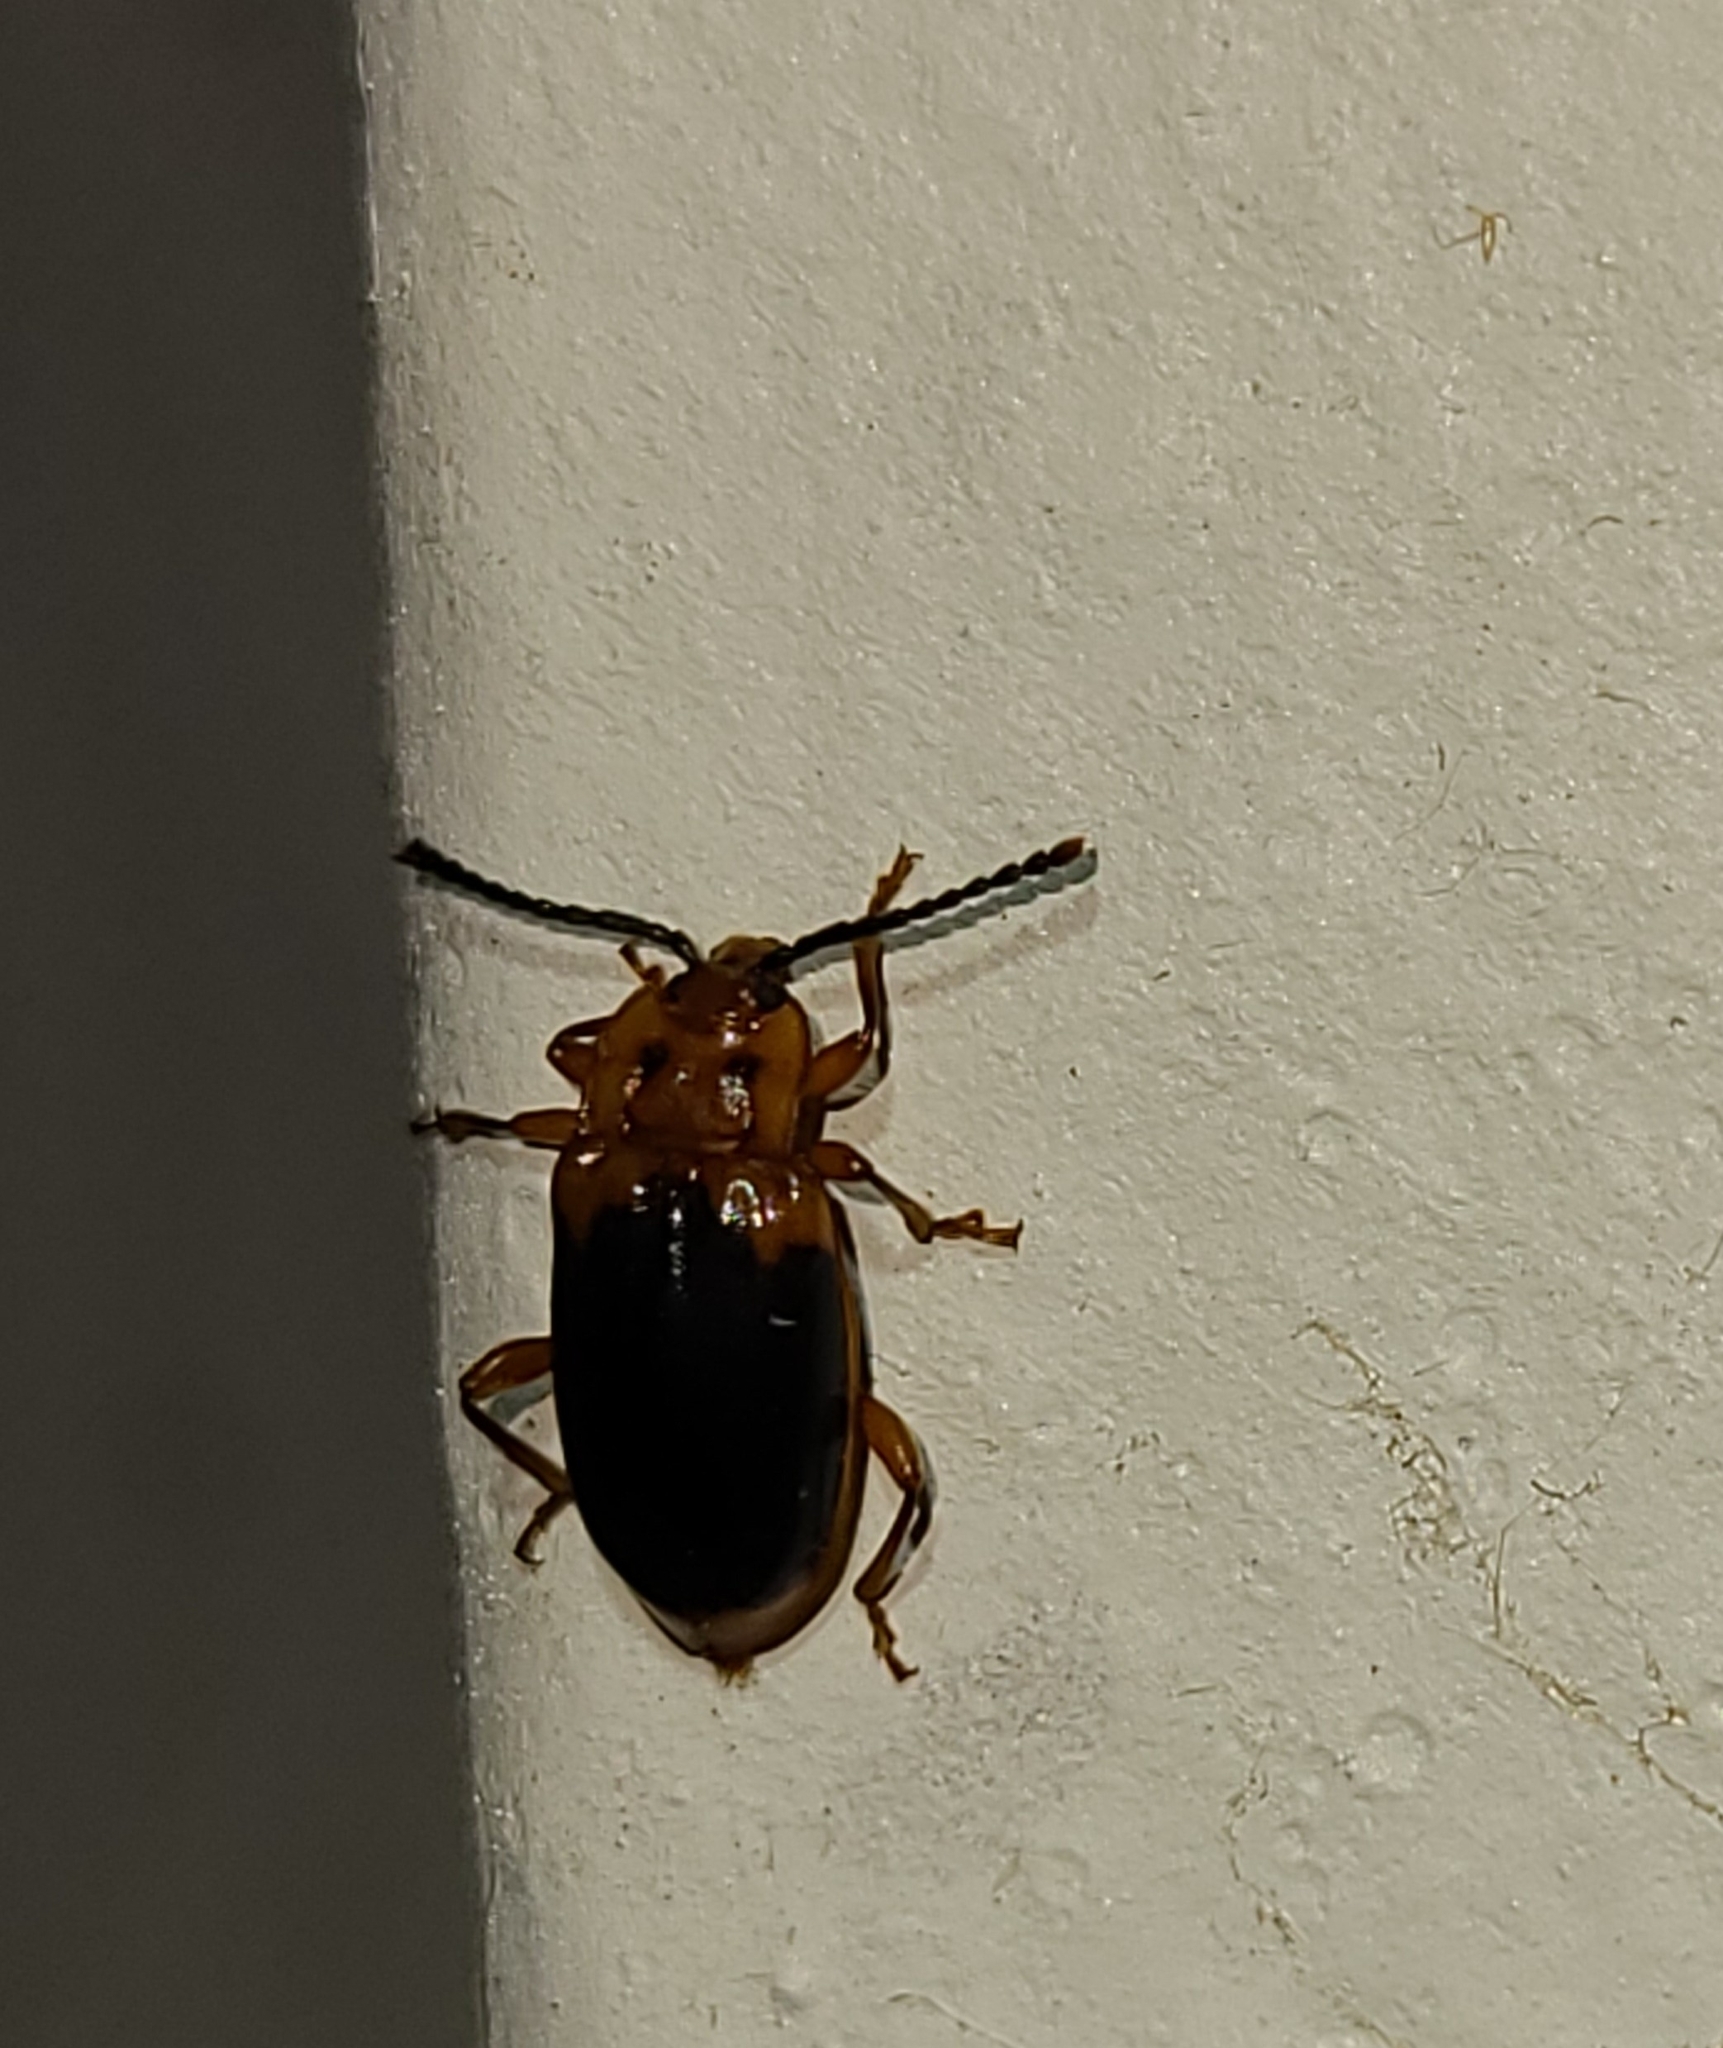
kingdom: Animalia
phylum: Arthropoda
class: Insecta
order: Coleoptera
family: Endomychidae
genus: Aphorista
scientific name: Aphorista laeta
